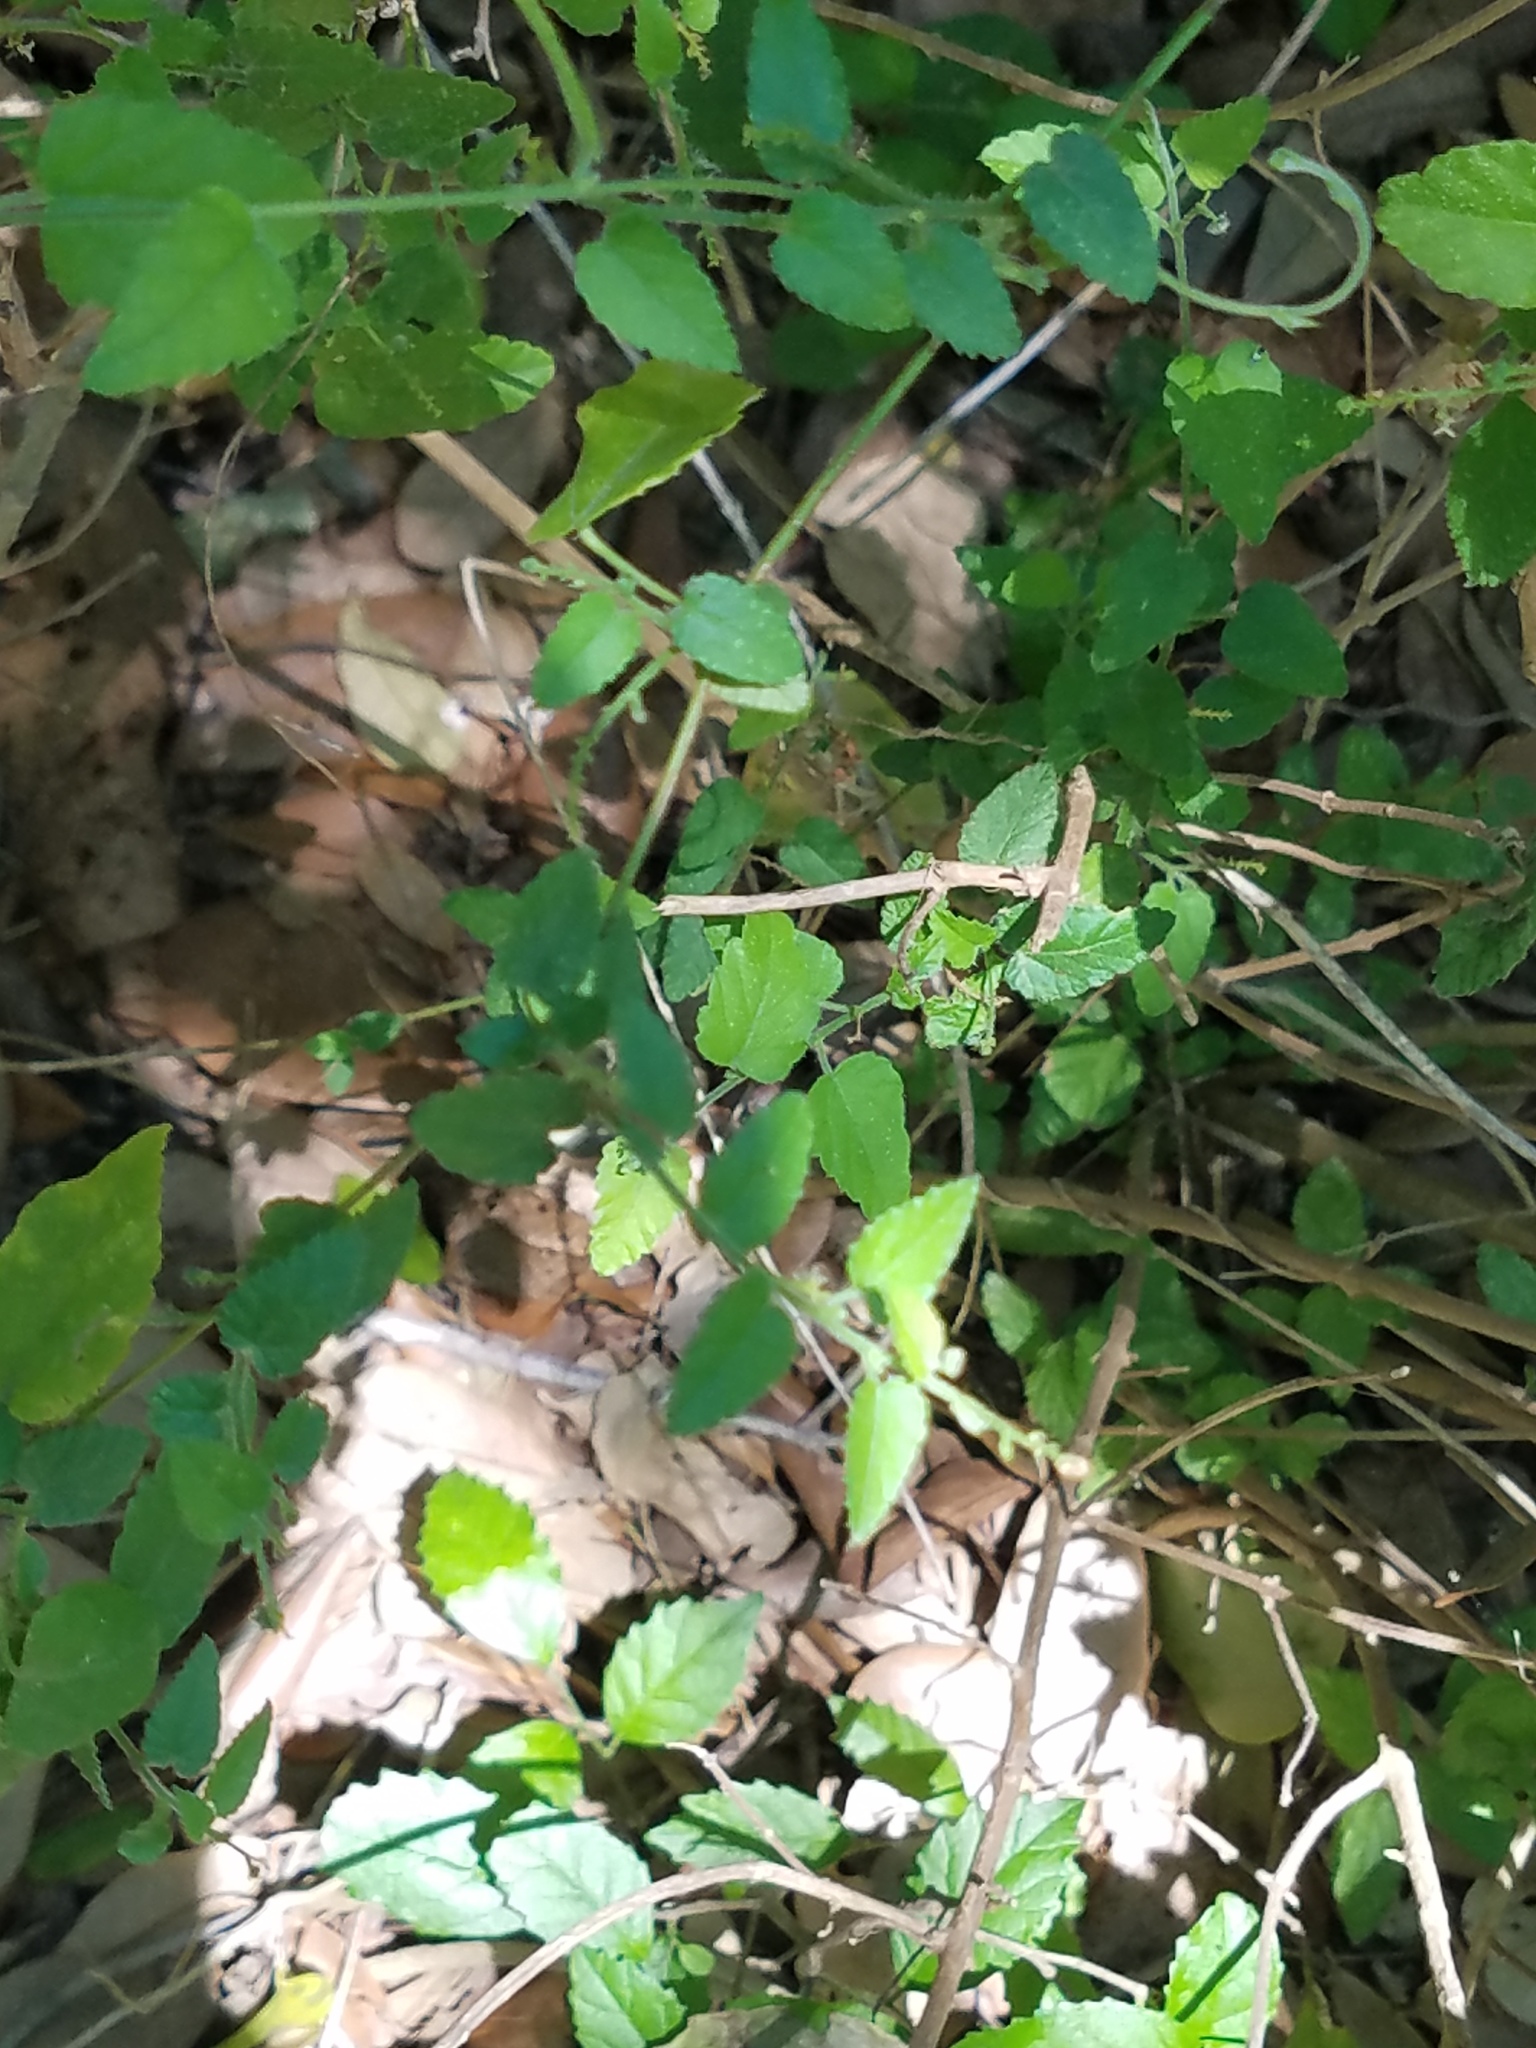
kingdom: Plantae
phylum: Tracheophyta
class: Magnoliopsida
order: Malpighiales
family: Euphorbiaceae
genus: Tragia
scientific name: Tragia glanduligera
